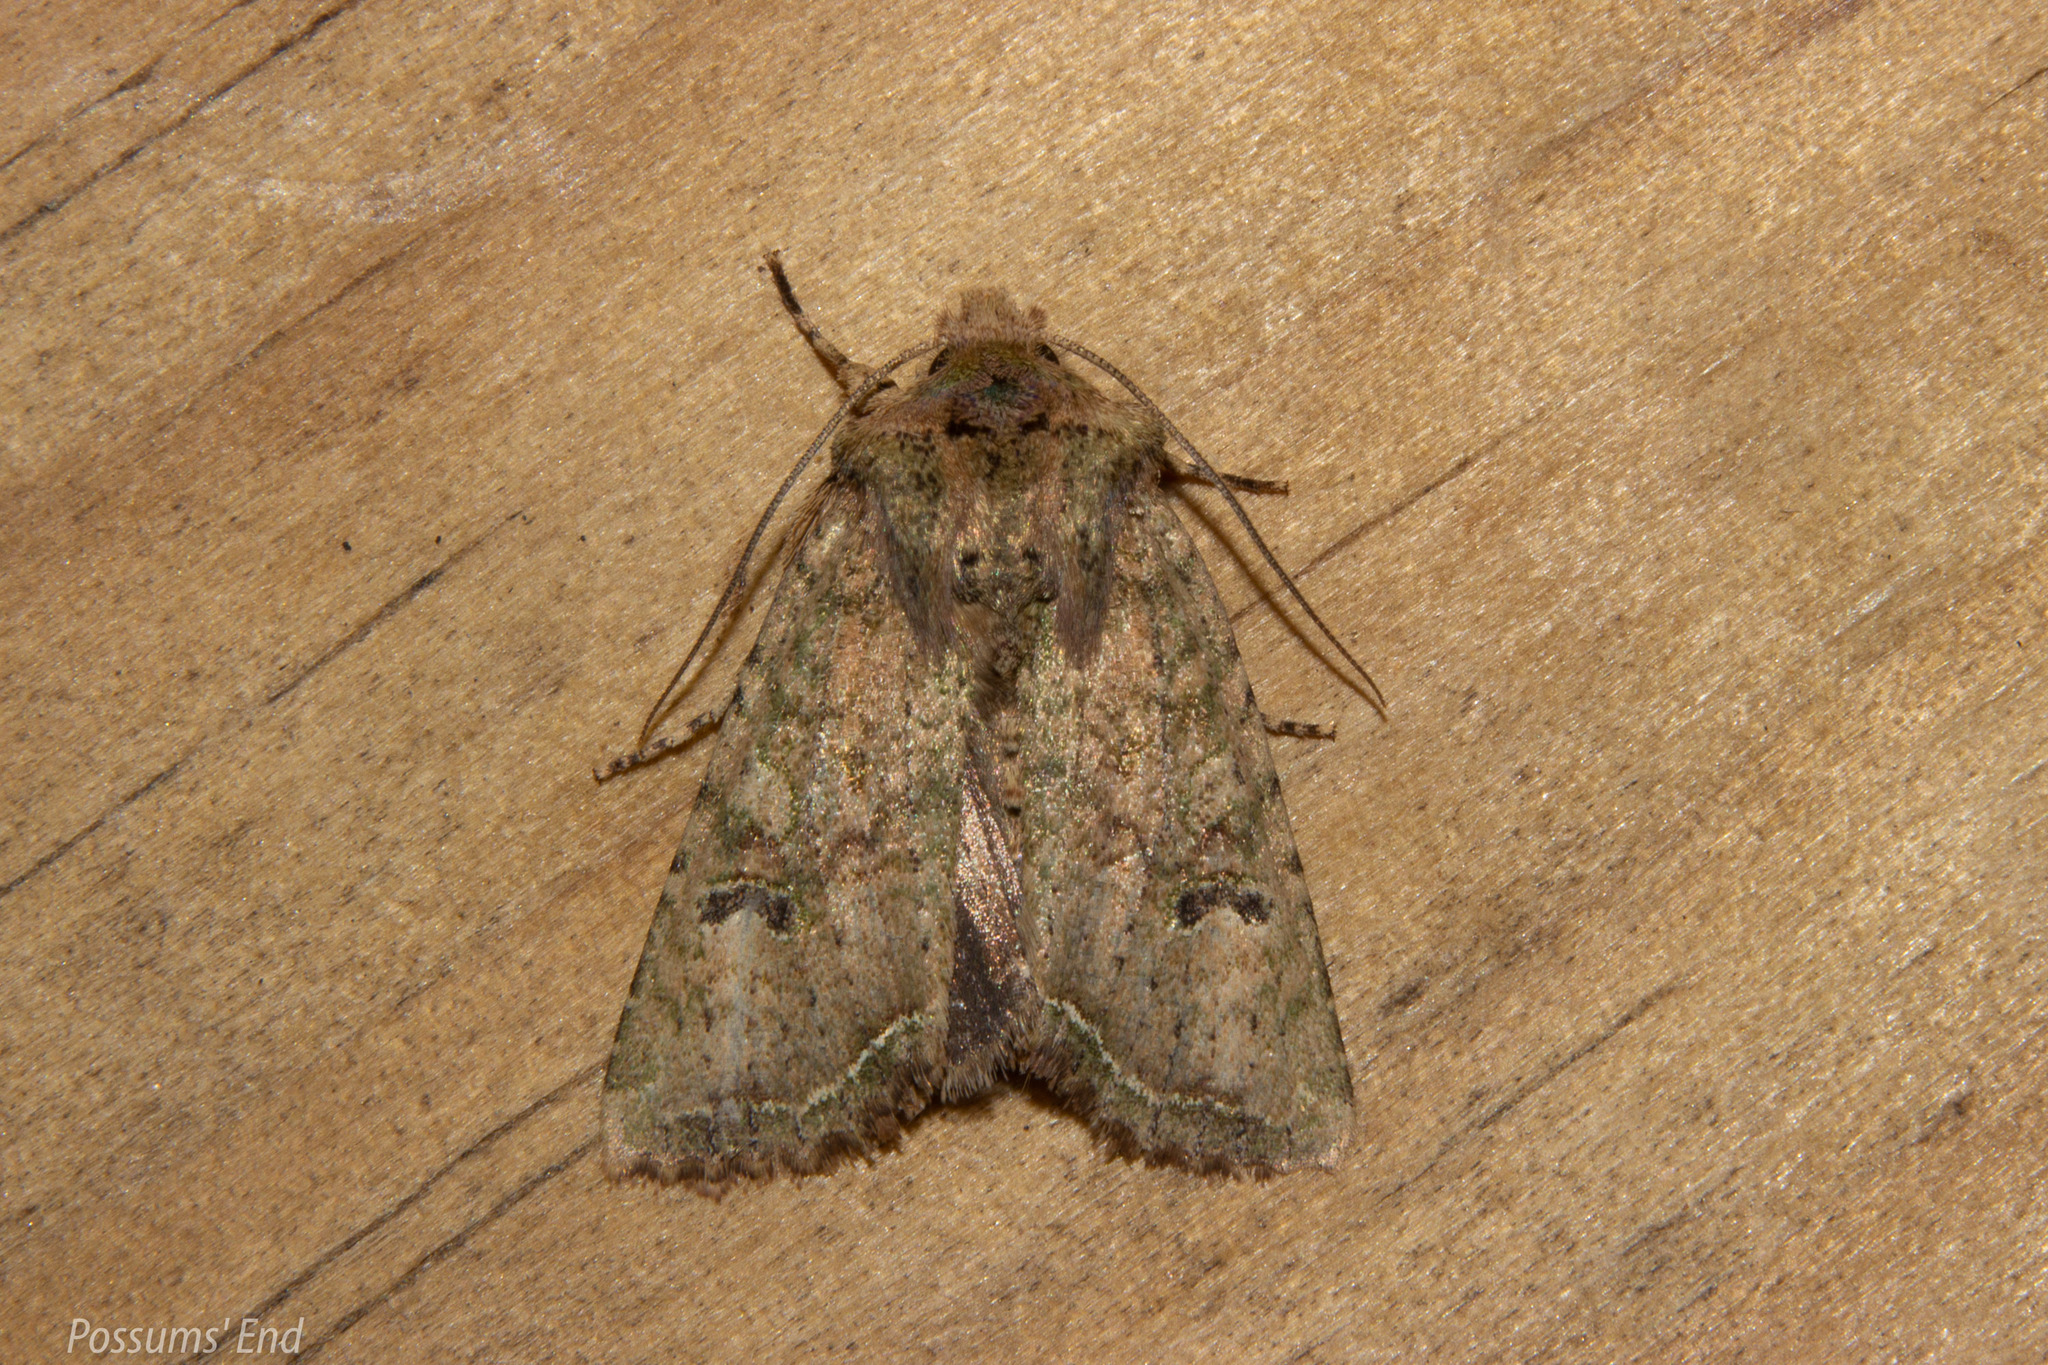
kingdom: Animalia
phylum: Arthropoda
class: Insecta
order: Lepidoptera
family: Noctuidae
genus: Meterana
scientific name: Meterana inchoata
